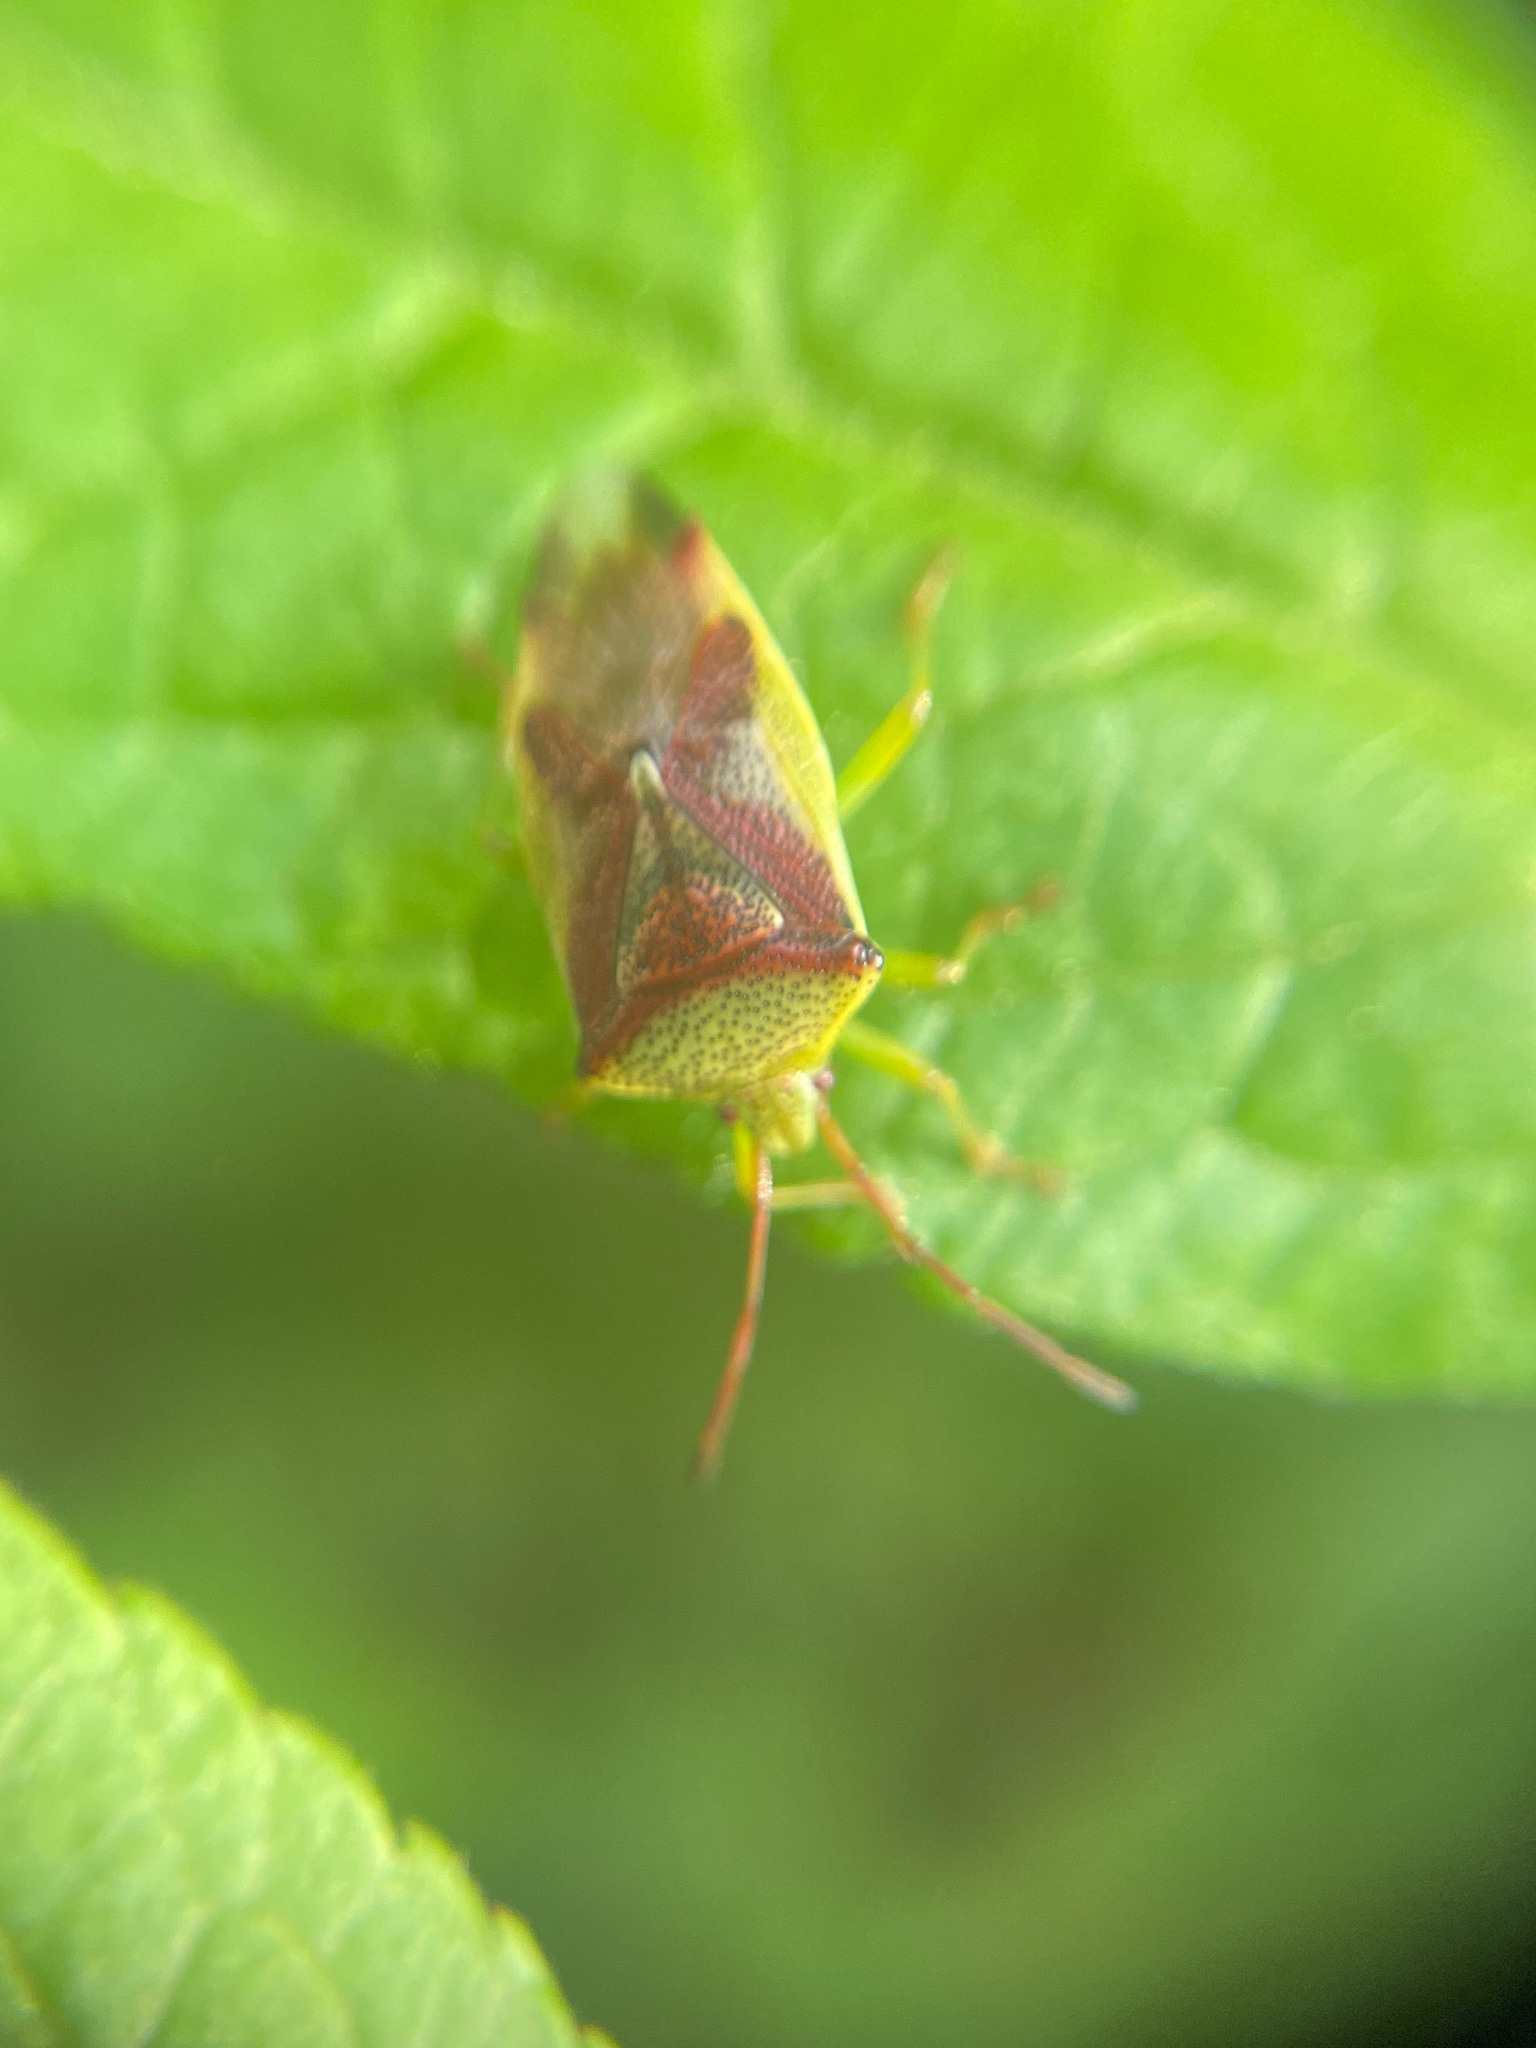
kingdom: Animalia
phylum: Arthropoda
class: Insecta
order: Hemiptera
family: Acanthosomatidae
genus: Elasmostethus
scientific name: Elasmostethus cruciatus
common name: Red-cross shield bug
